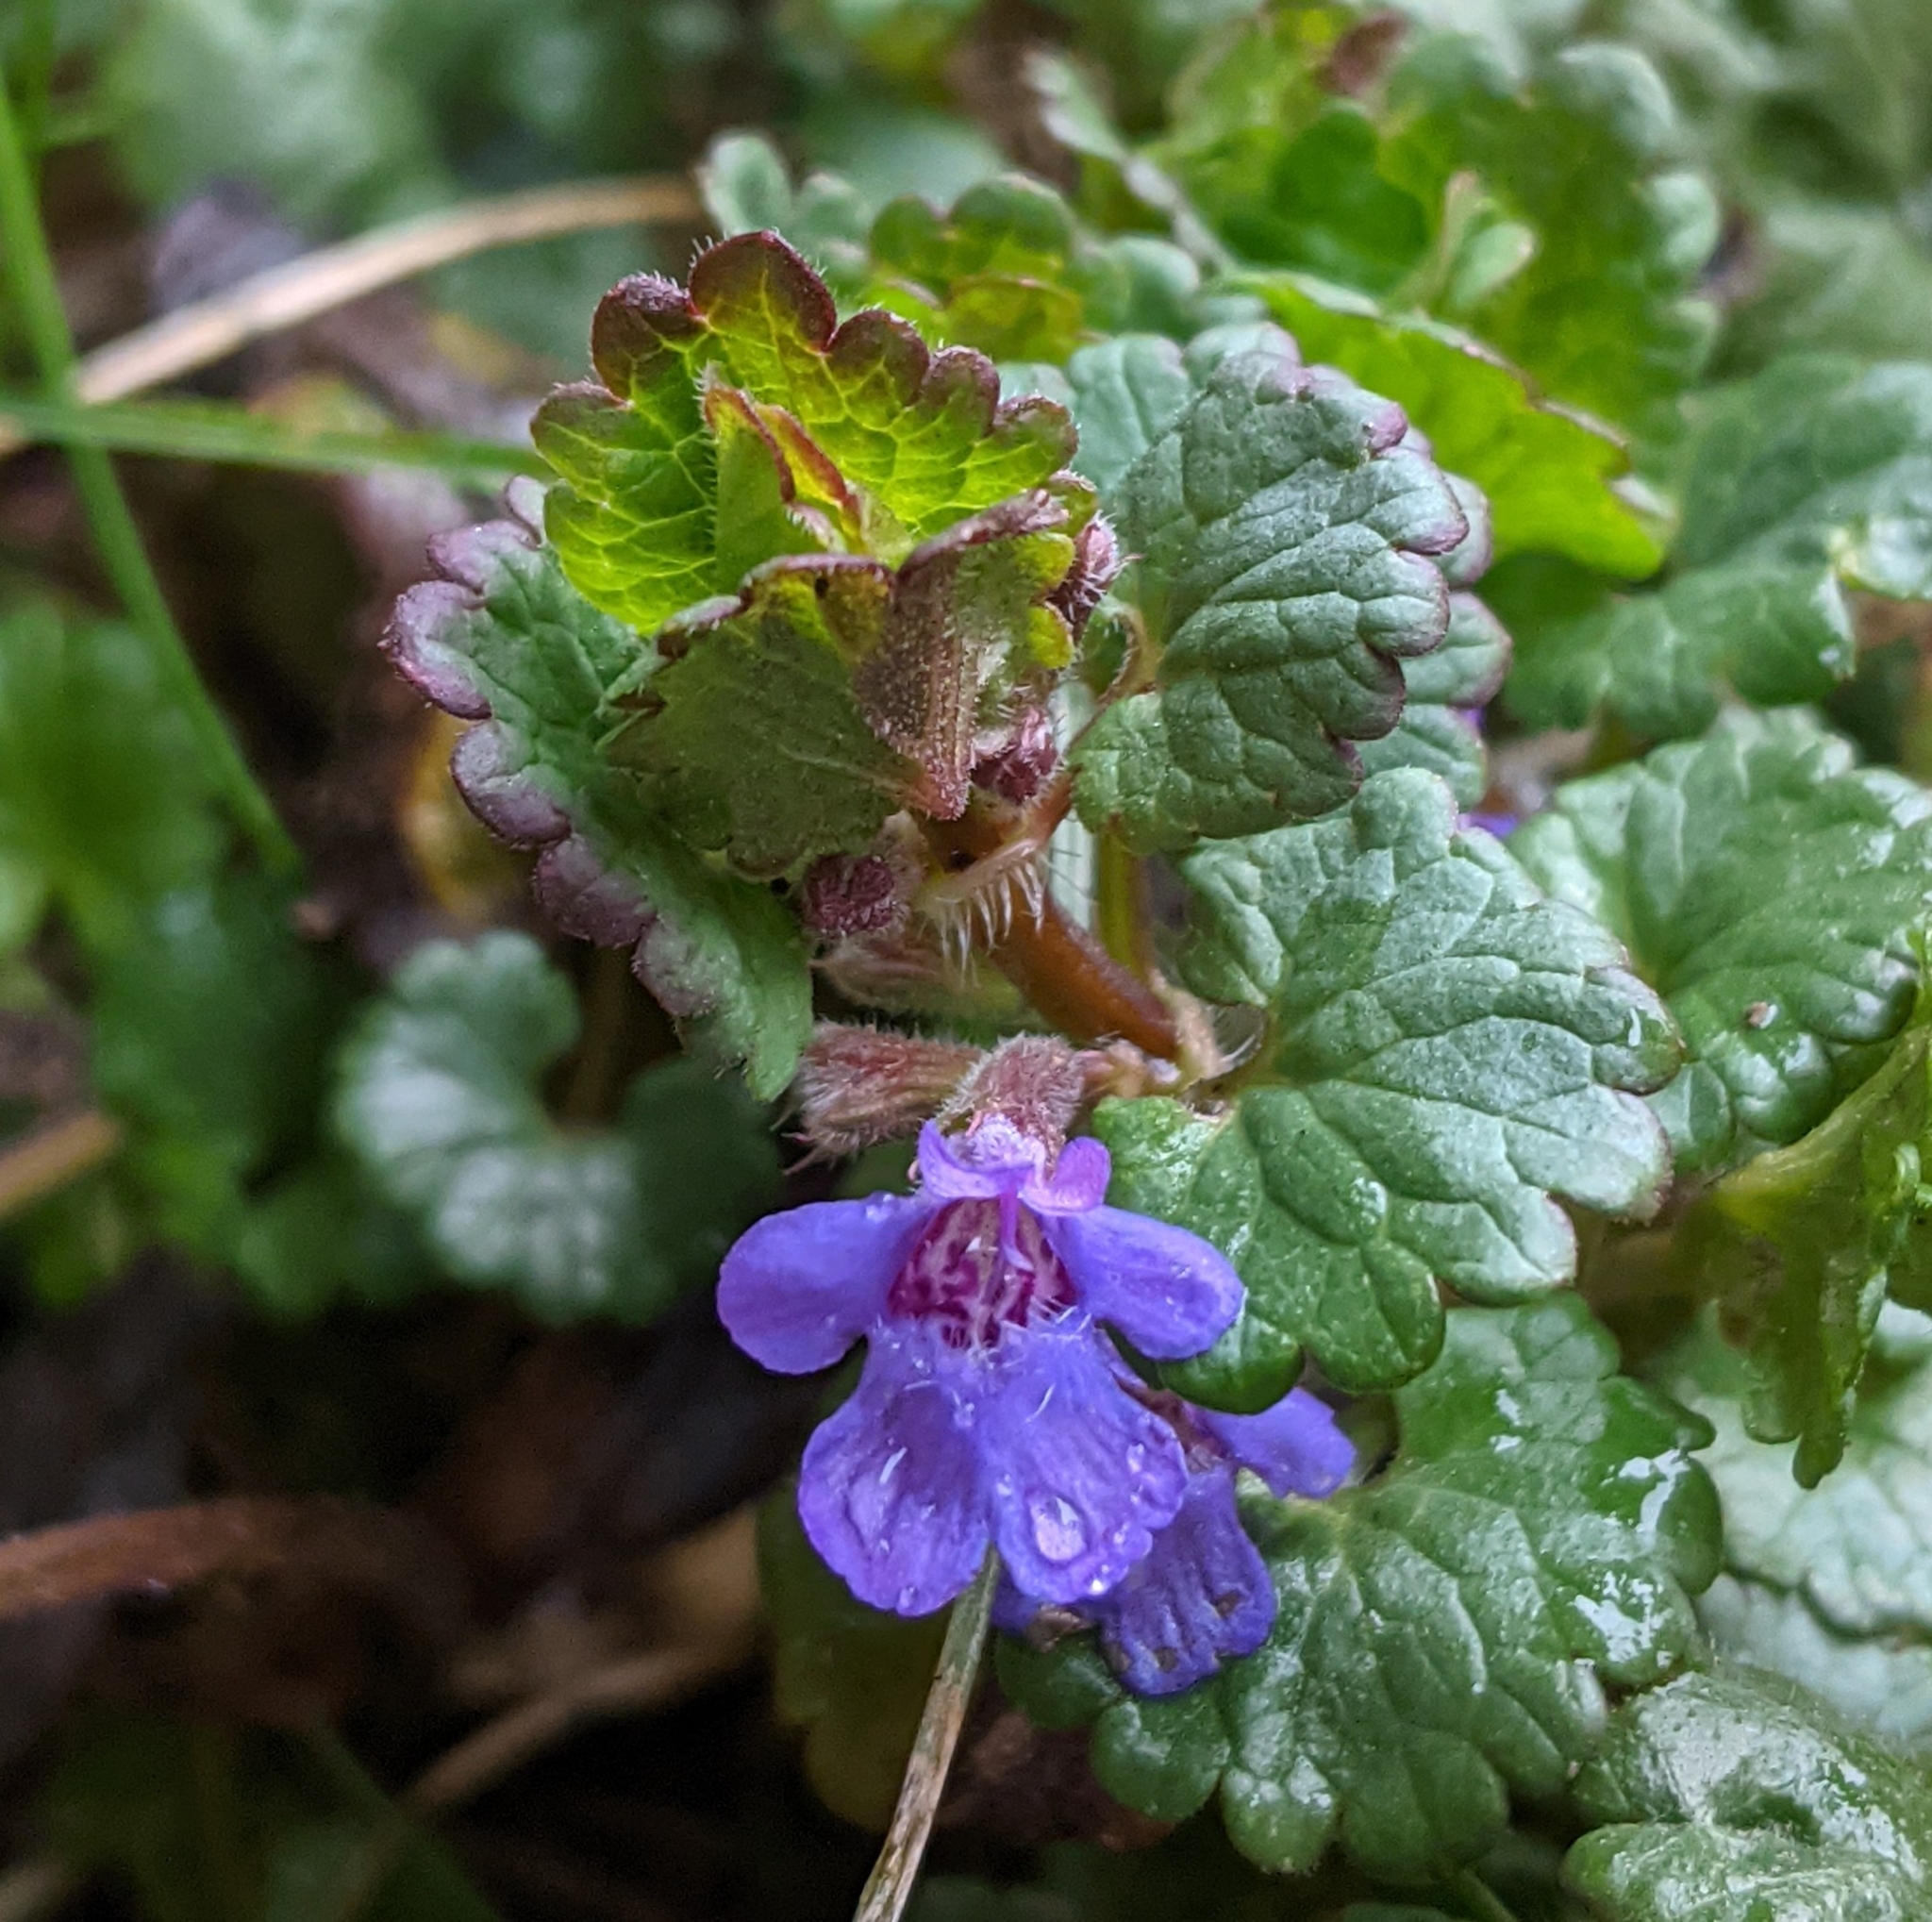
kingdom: Plantae
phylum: Tracheophyta
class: Magnoliopsida
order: Lamiales
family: Lamiaceae
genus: Glechoma
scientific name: Glechoma hederacea
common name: Ground ivy
